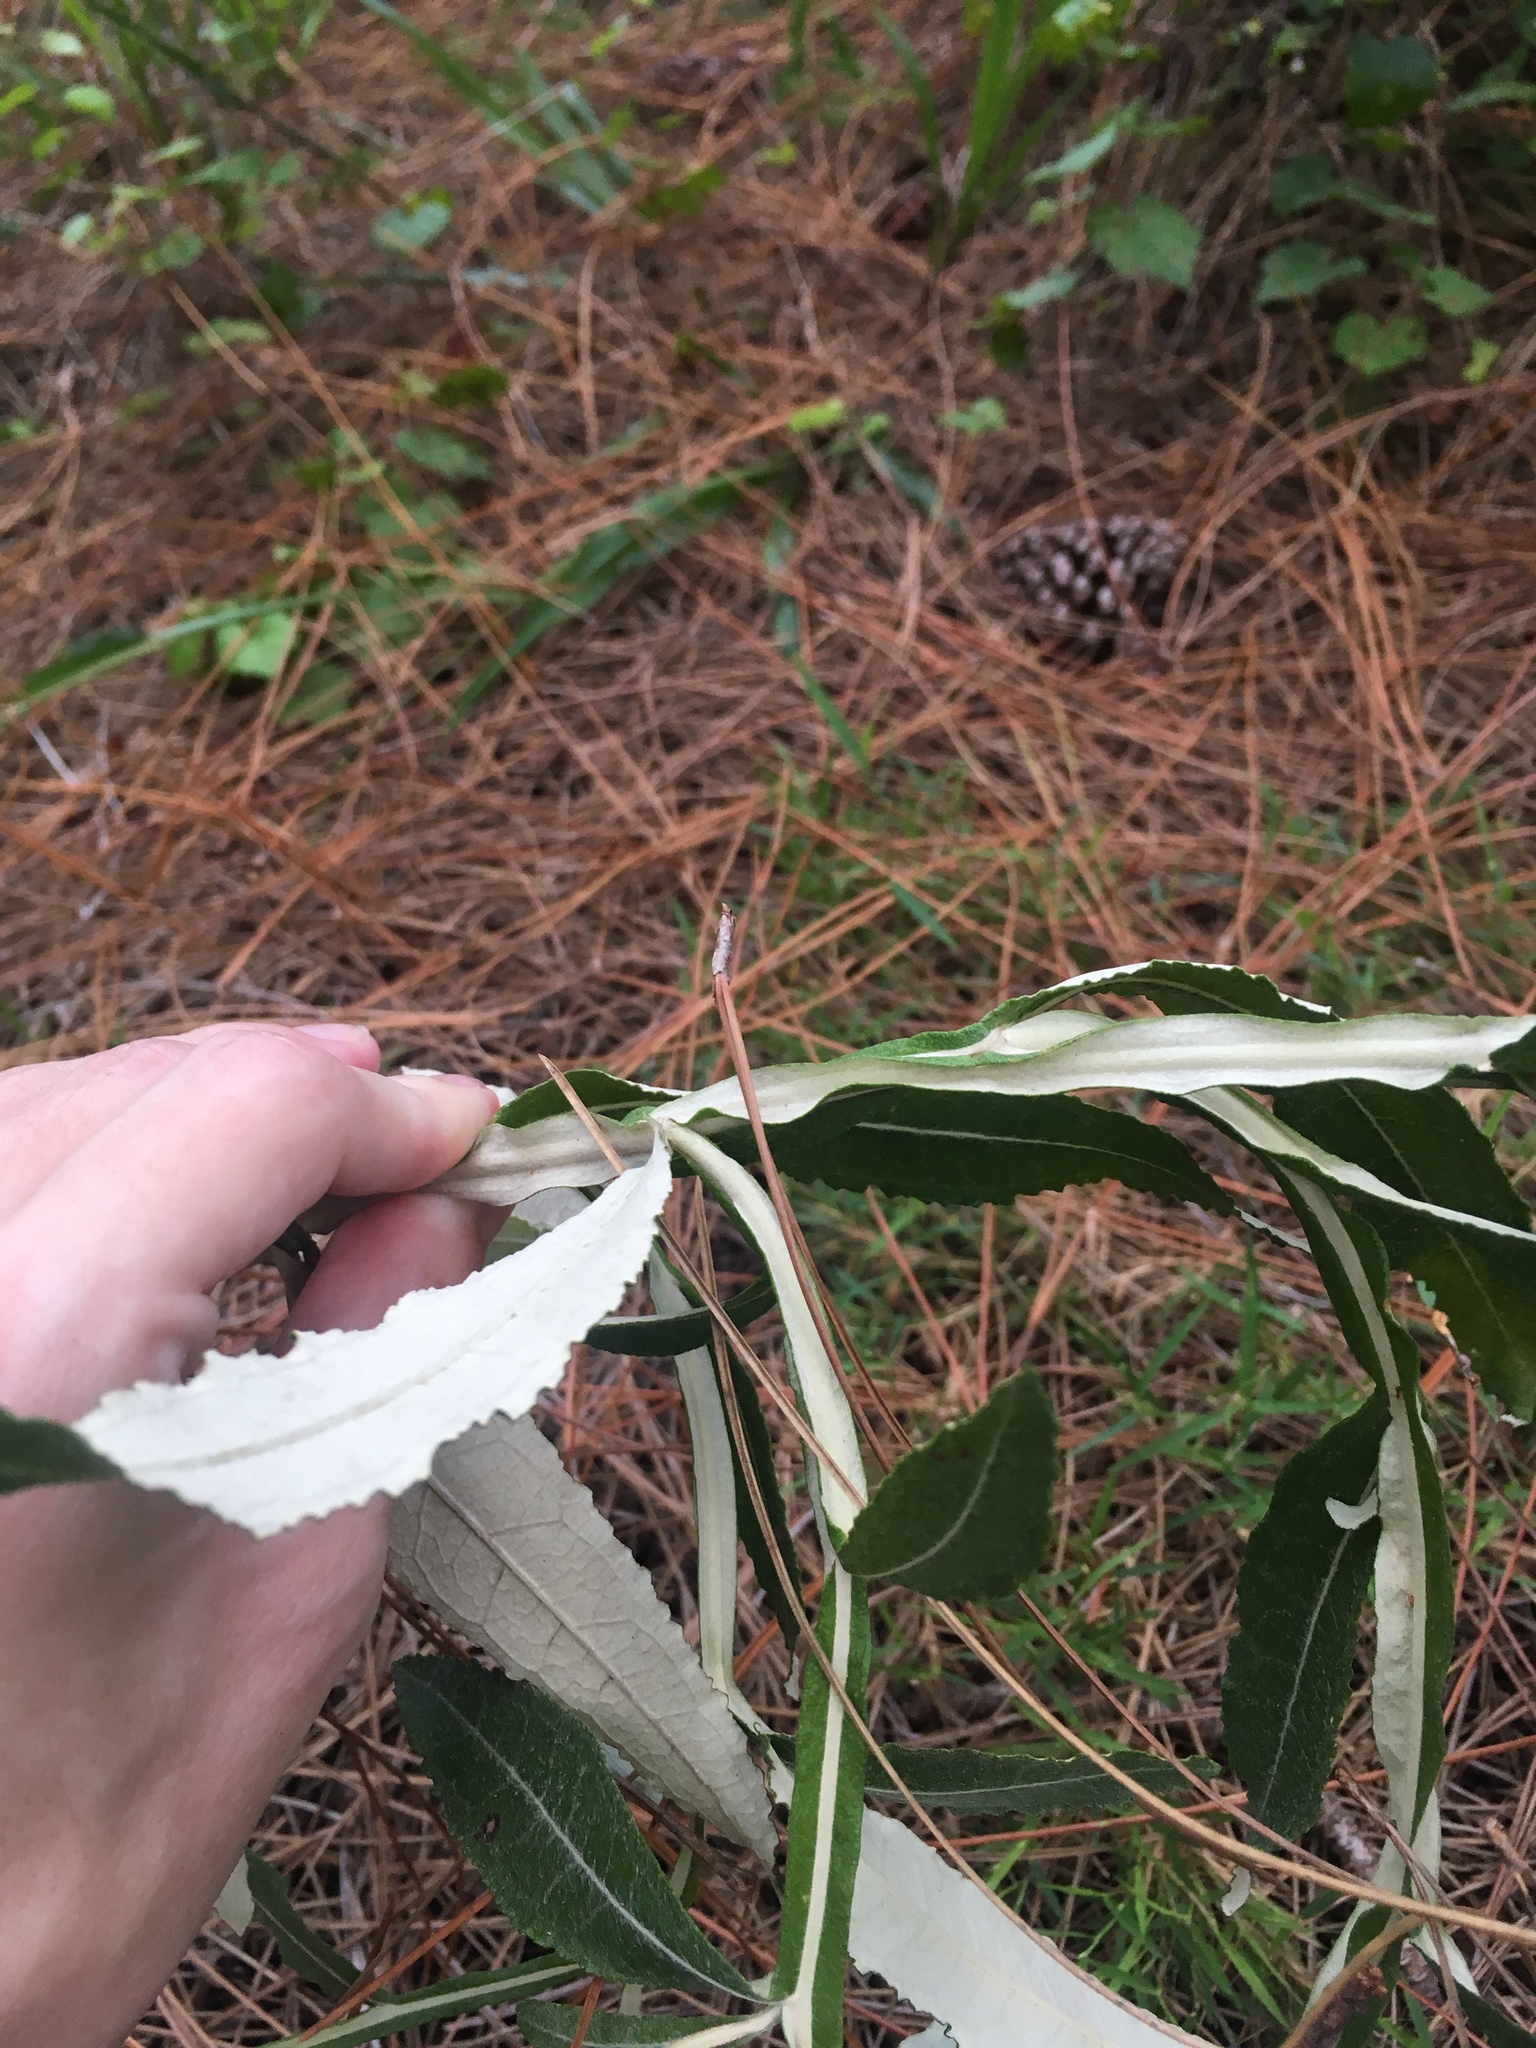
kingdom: Plantae
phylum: Tracheophyta
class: Magnoliopsida
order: Asterales
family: Asteraceae
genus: Pterocaulon
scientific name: Pterocaulon pycnostachyum
